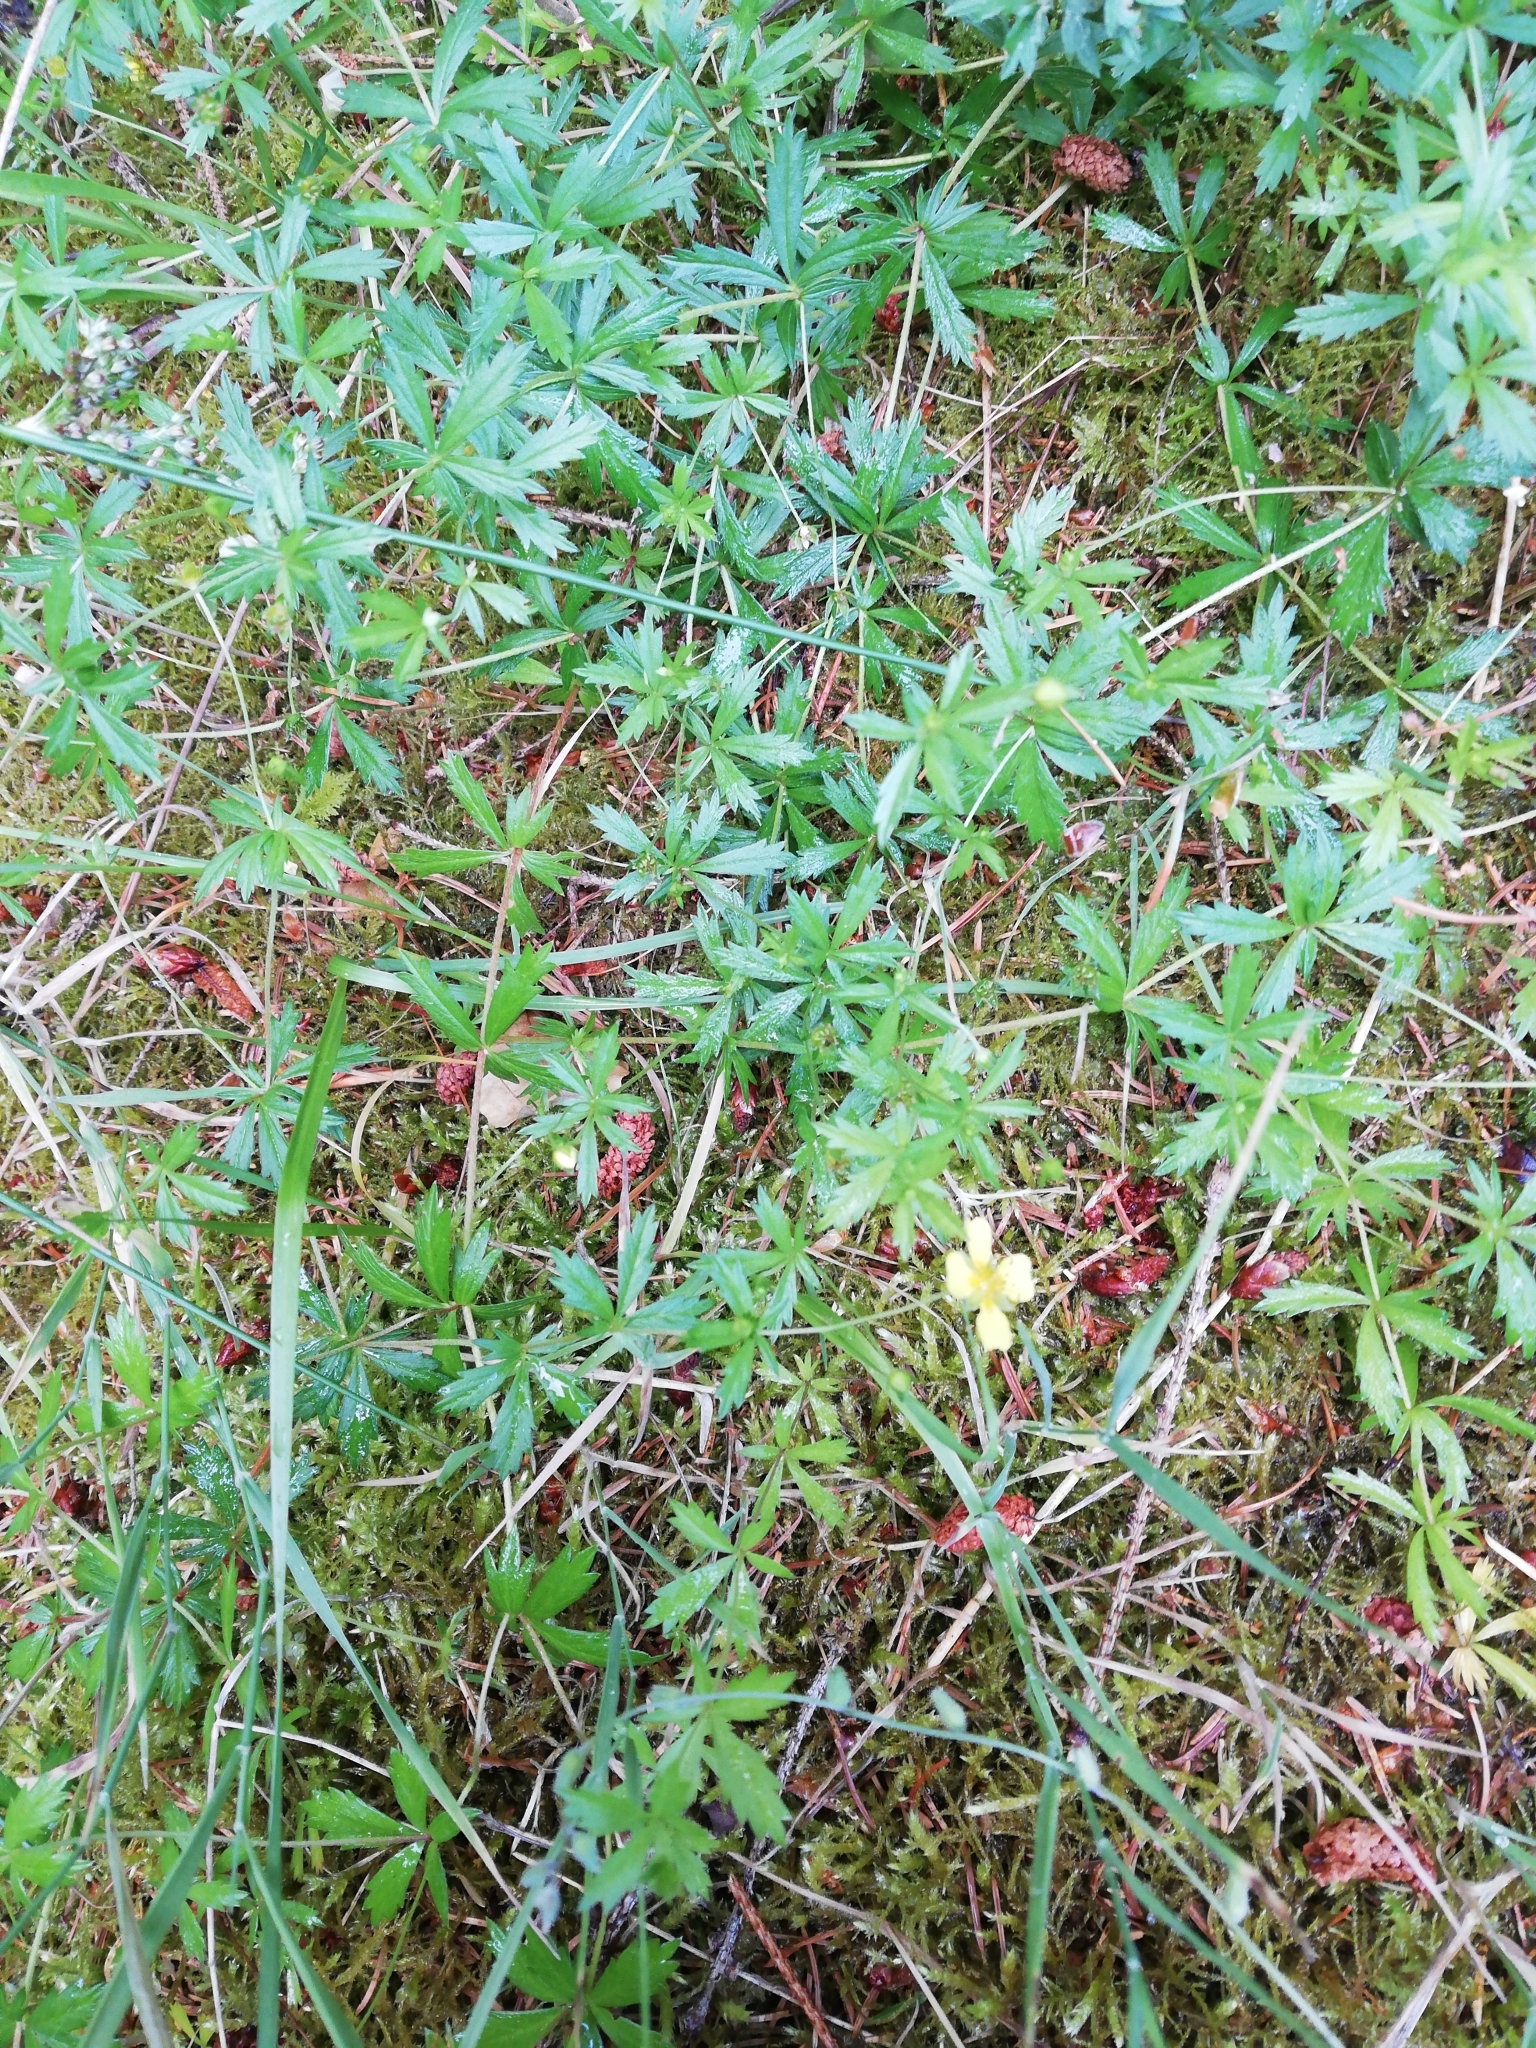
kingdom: Plantae
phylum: Tracheophyta
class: Magnoliopsida
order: Rosales
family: Rosaceae
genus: Potentilla
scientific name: Potentilla erecta
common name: Tormentil
